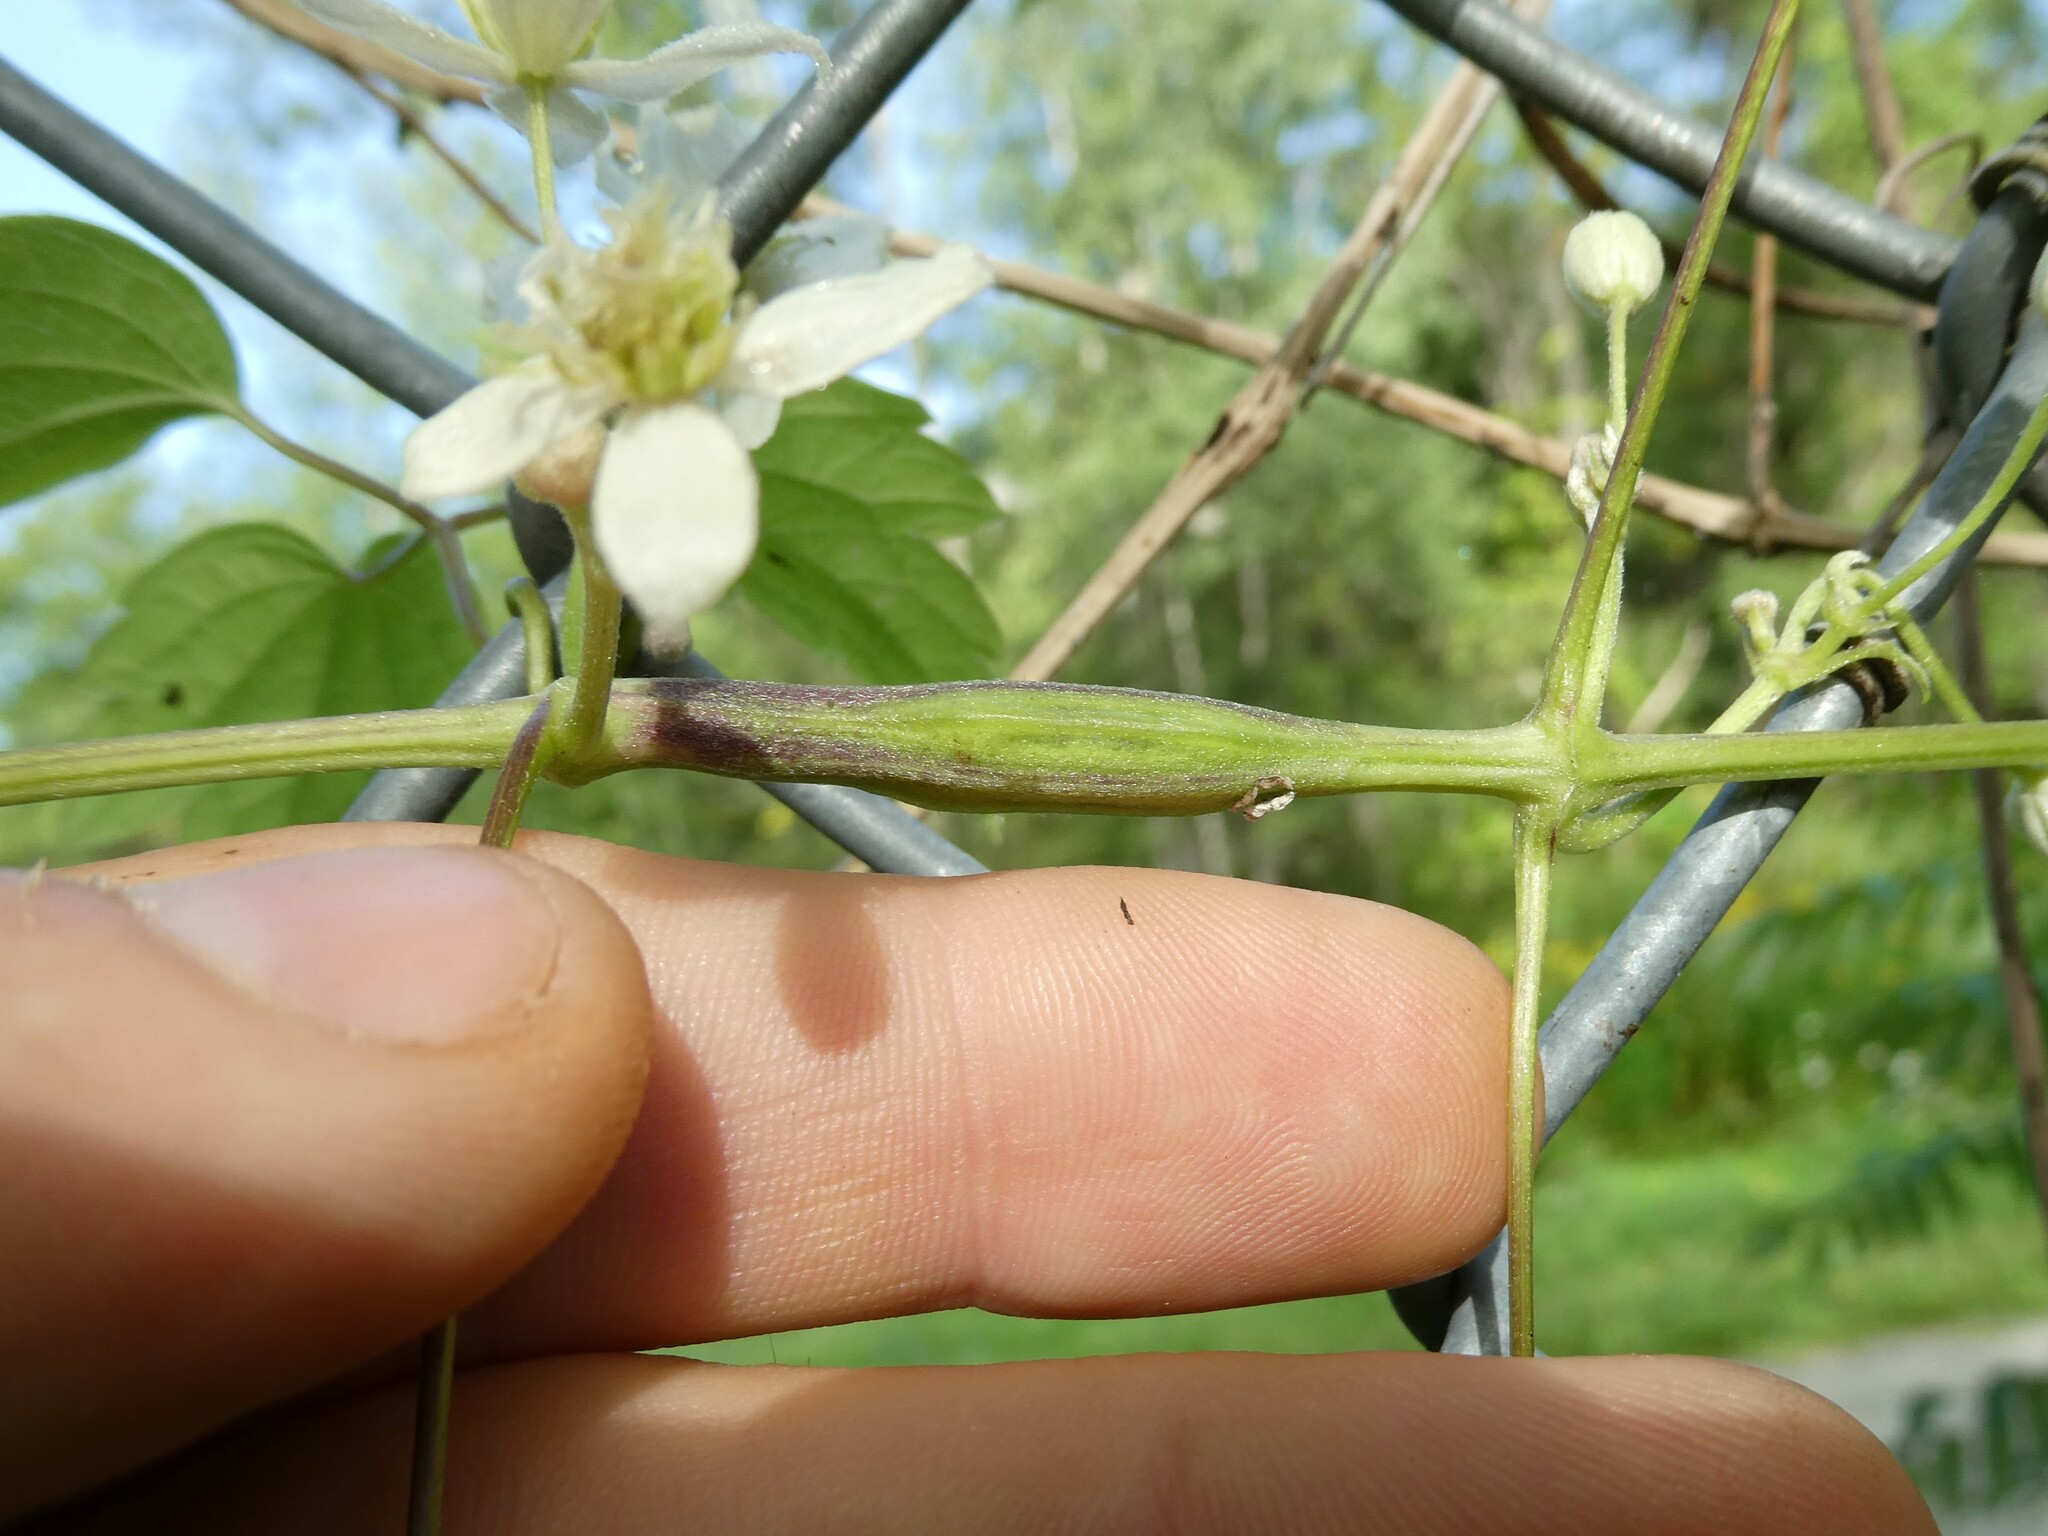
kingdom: Animalia
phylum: Arthropoda
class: Insecta
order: Diptera
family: Cecidomyiidae
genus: Neolasioptera
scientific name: Neolasioptera clematidis
